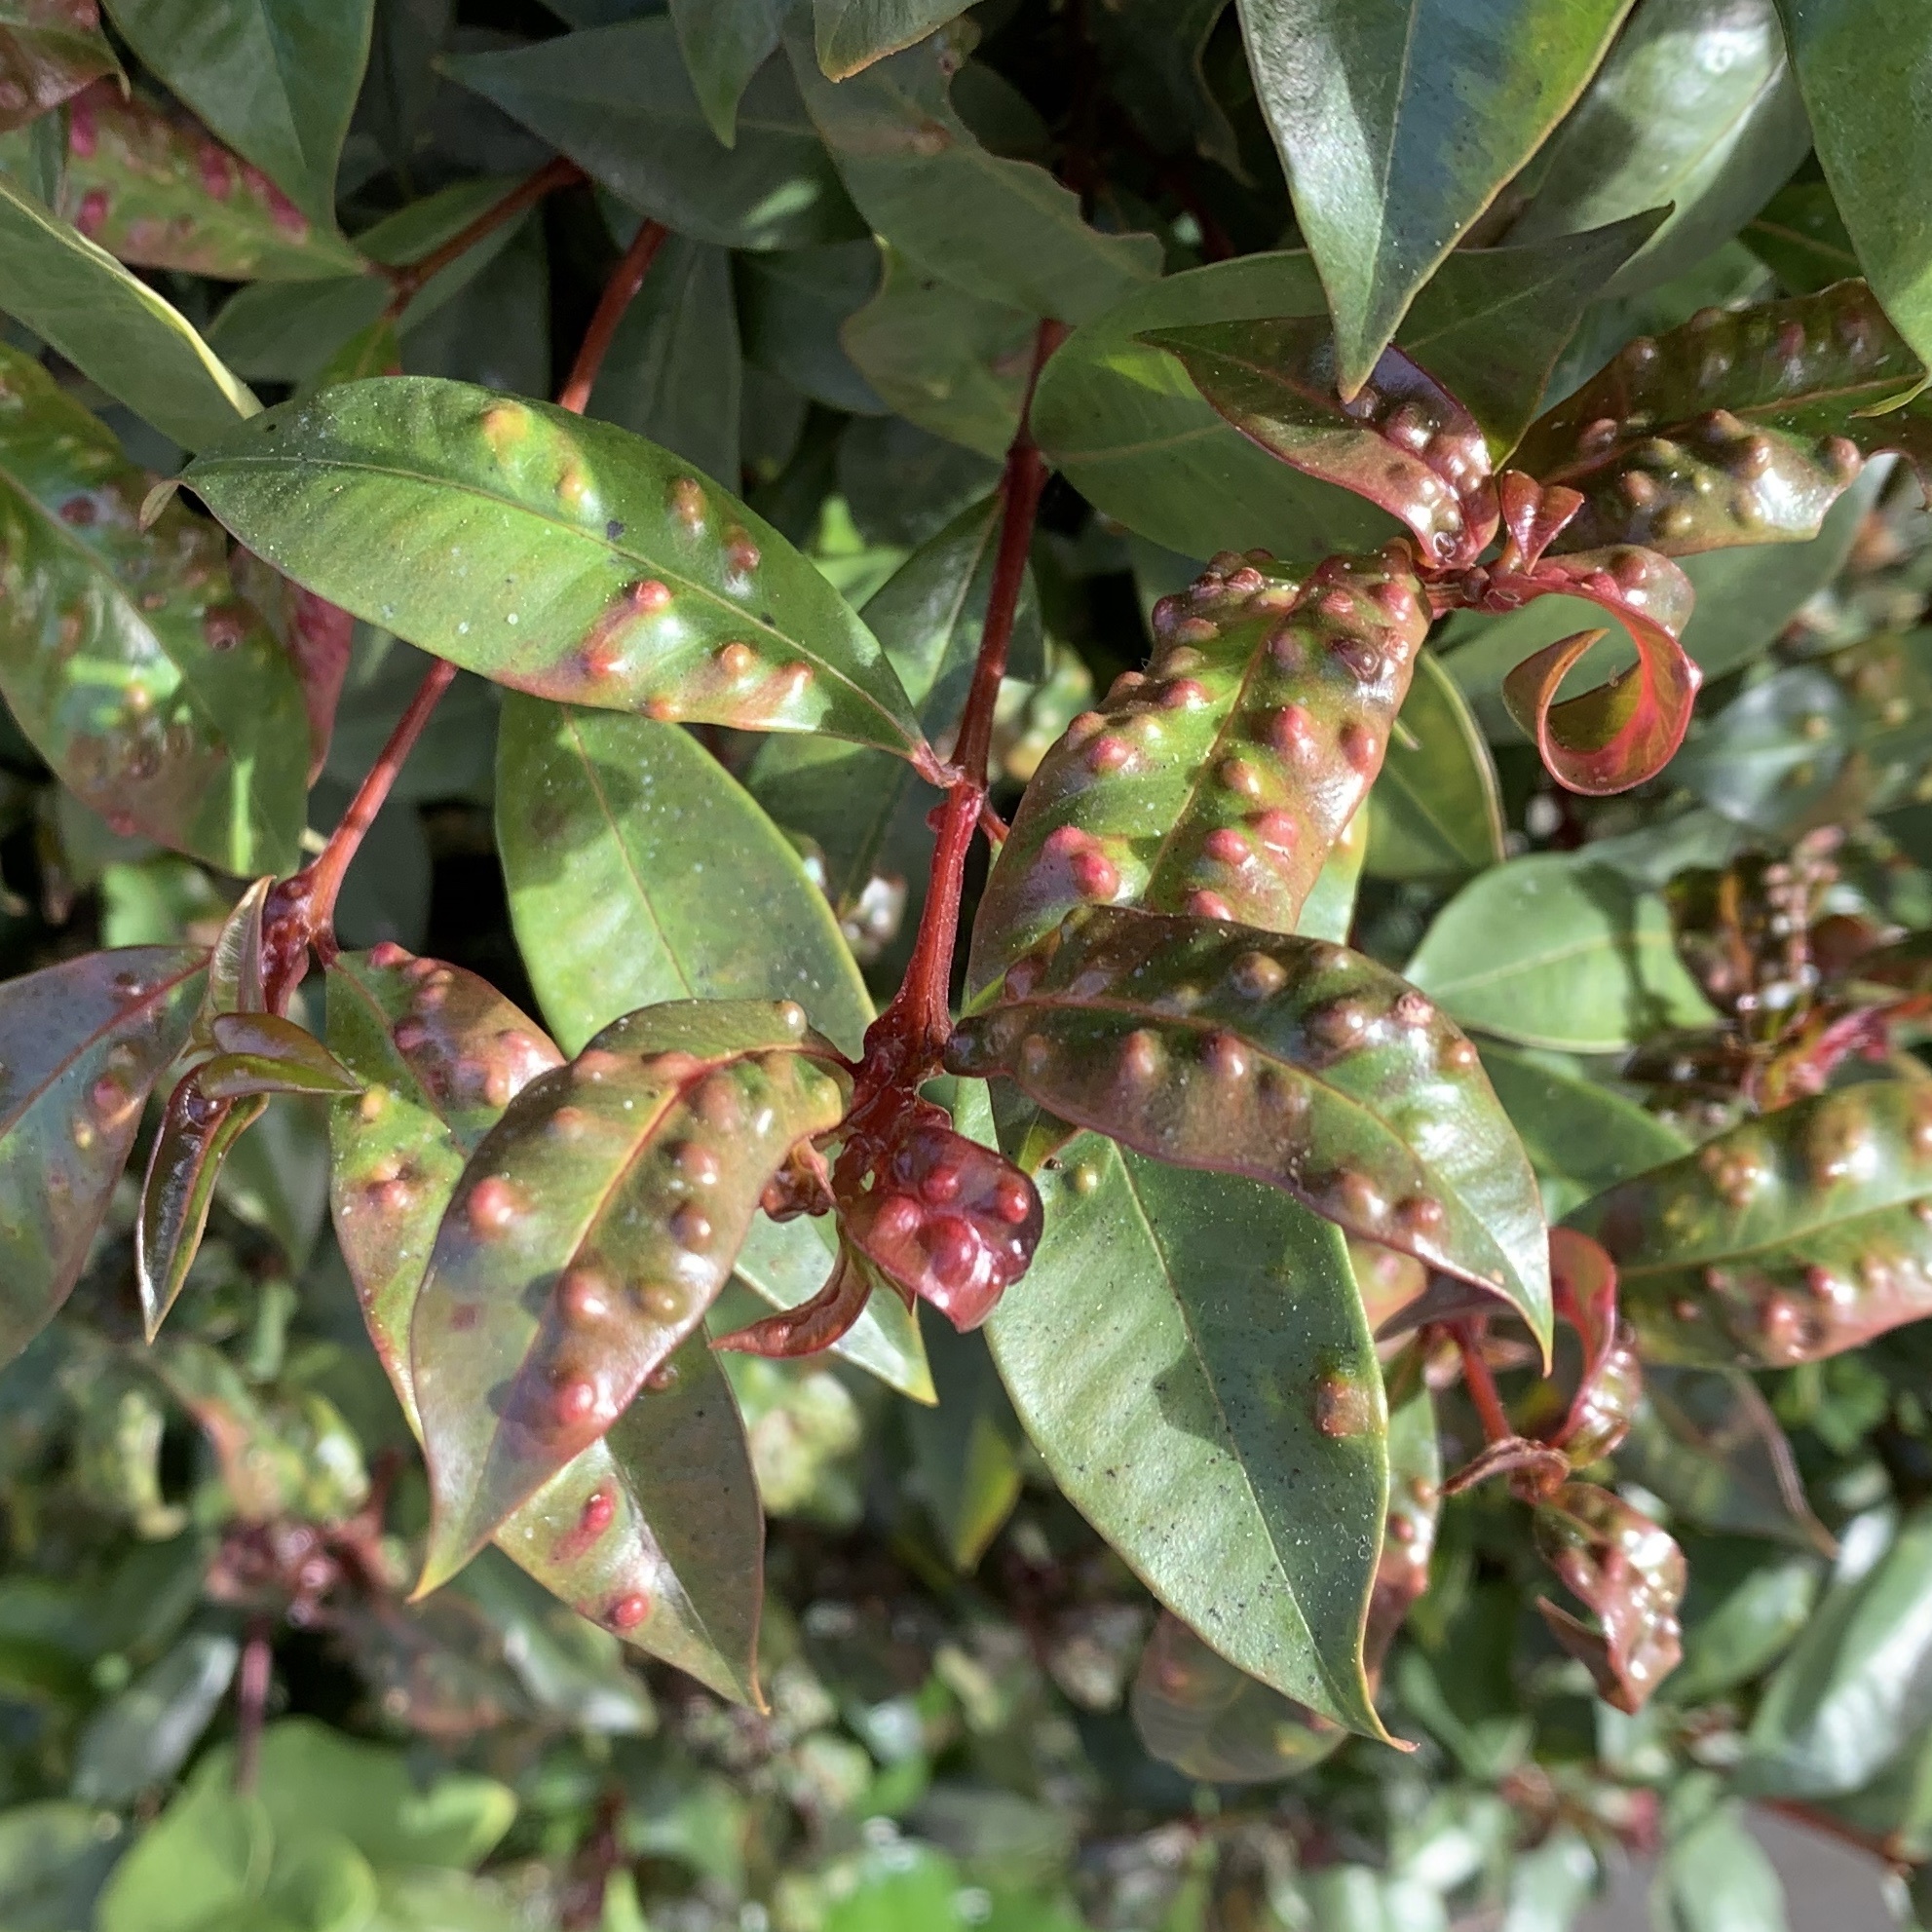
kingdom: Animalia
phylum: Arthropoda
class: Insecta
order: Hemiptera
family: Triozidae
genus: Trioza
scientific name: Trioza adventicia
